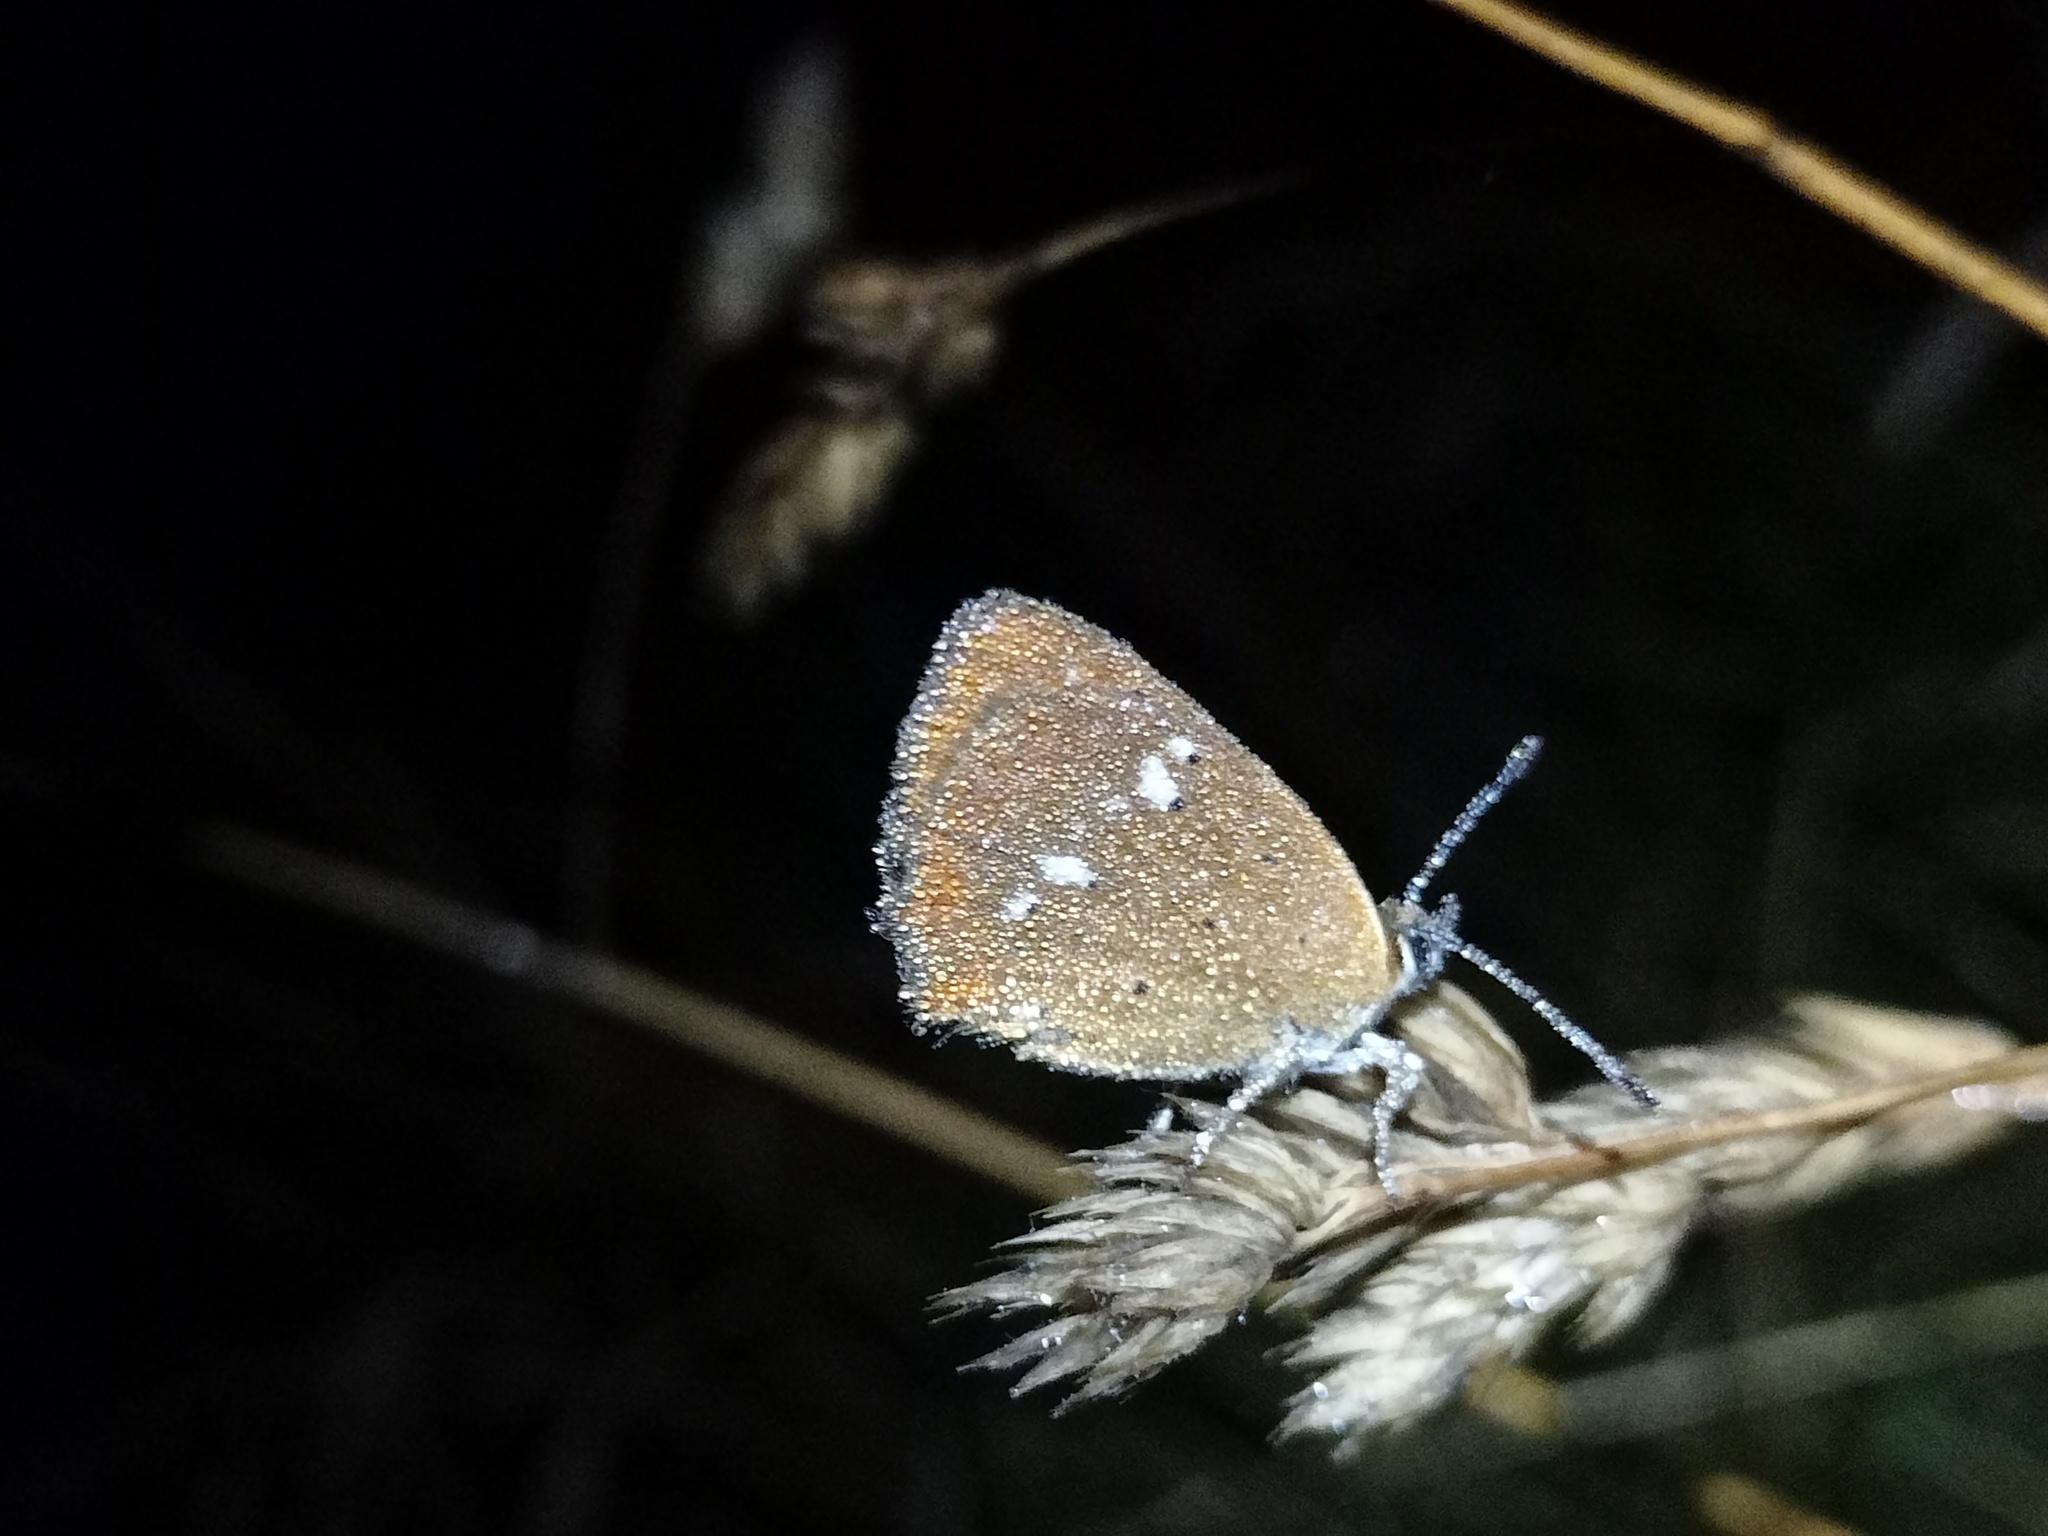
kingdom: Animalia
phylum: Arthropoda
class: Insecta
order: Lepidoptera
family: Lycaenidae
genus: Lycaena
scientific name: Lycaena virgaureae
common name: Scarce copper
